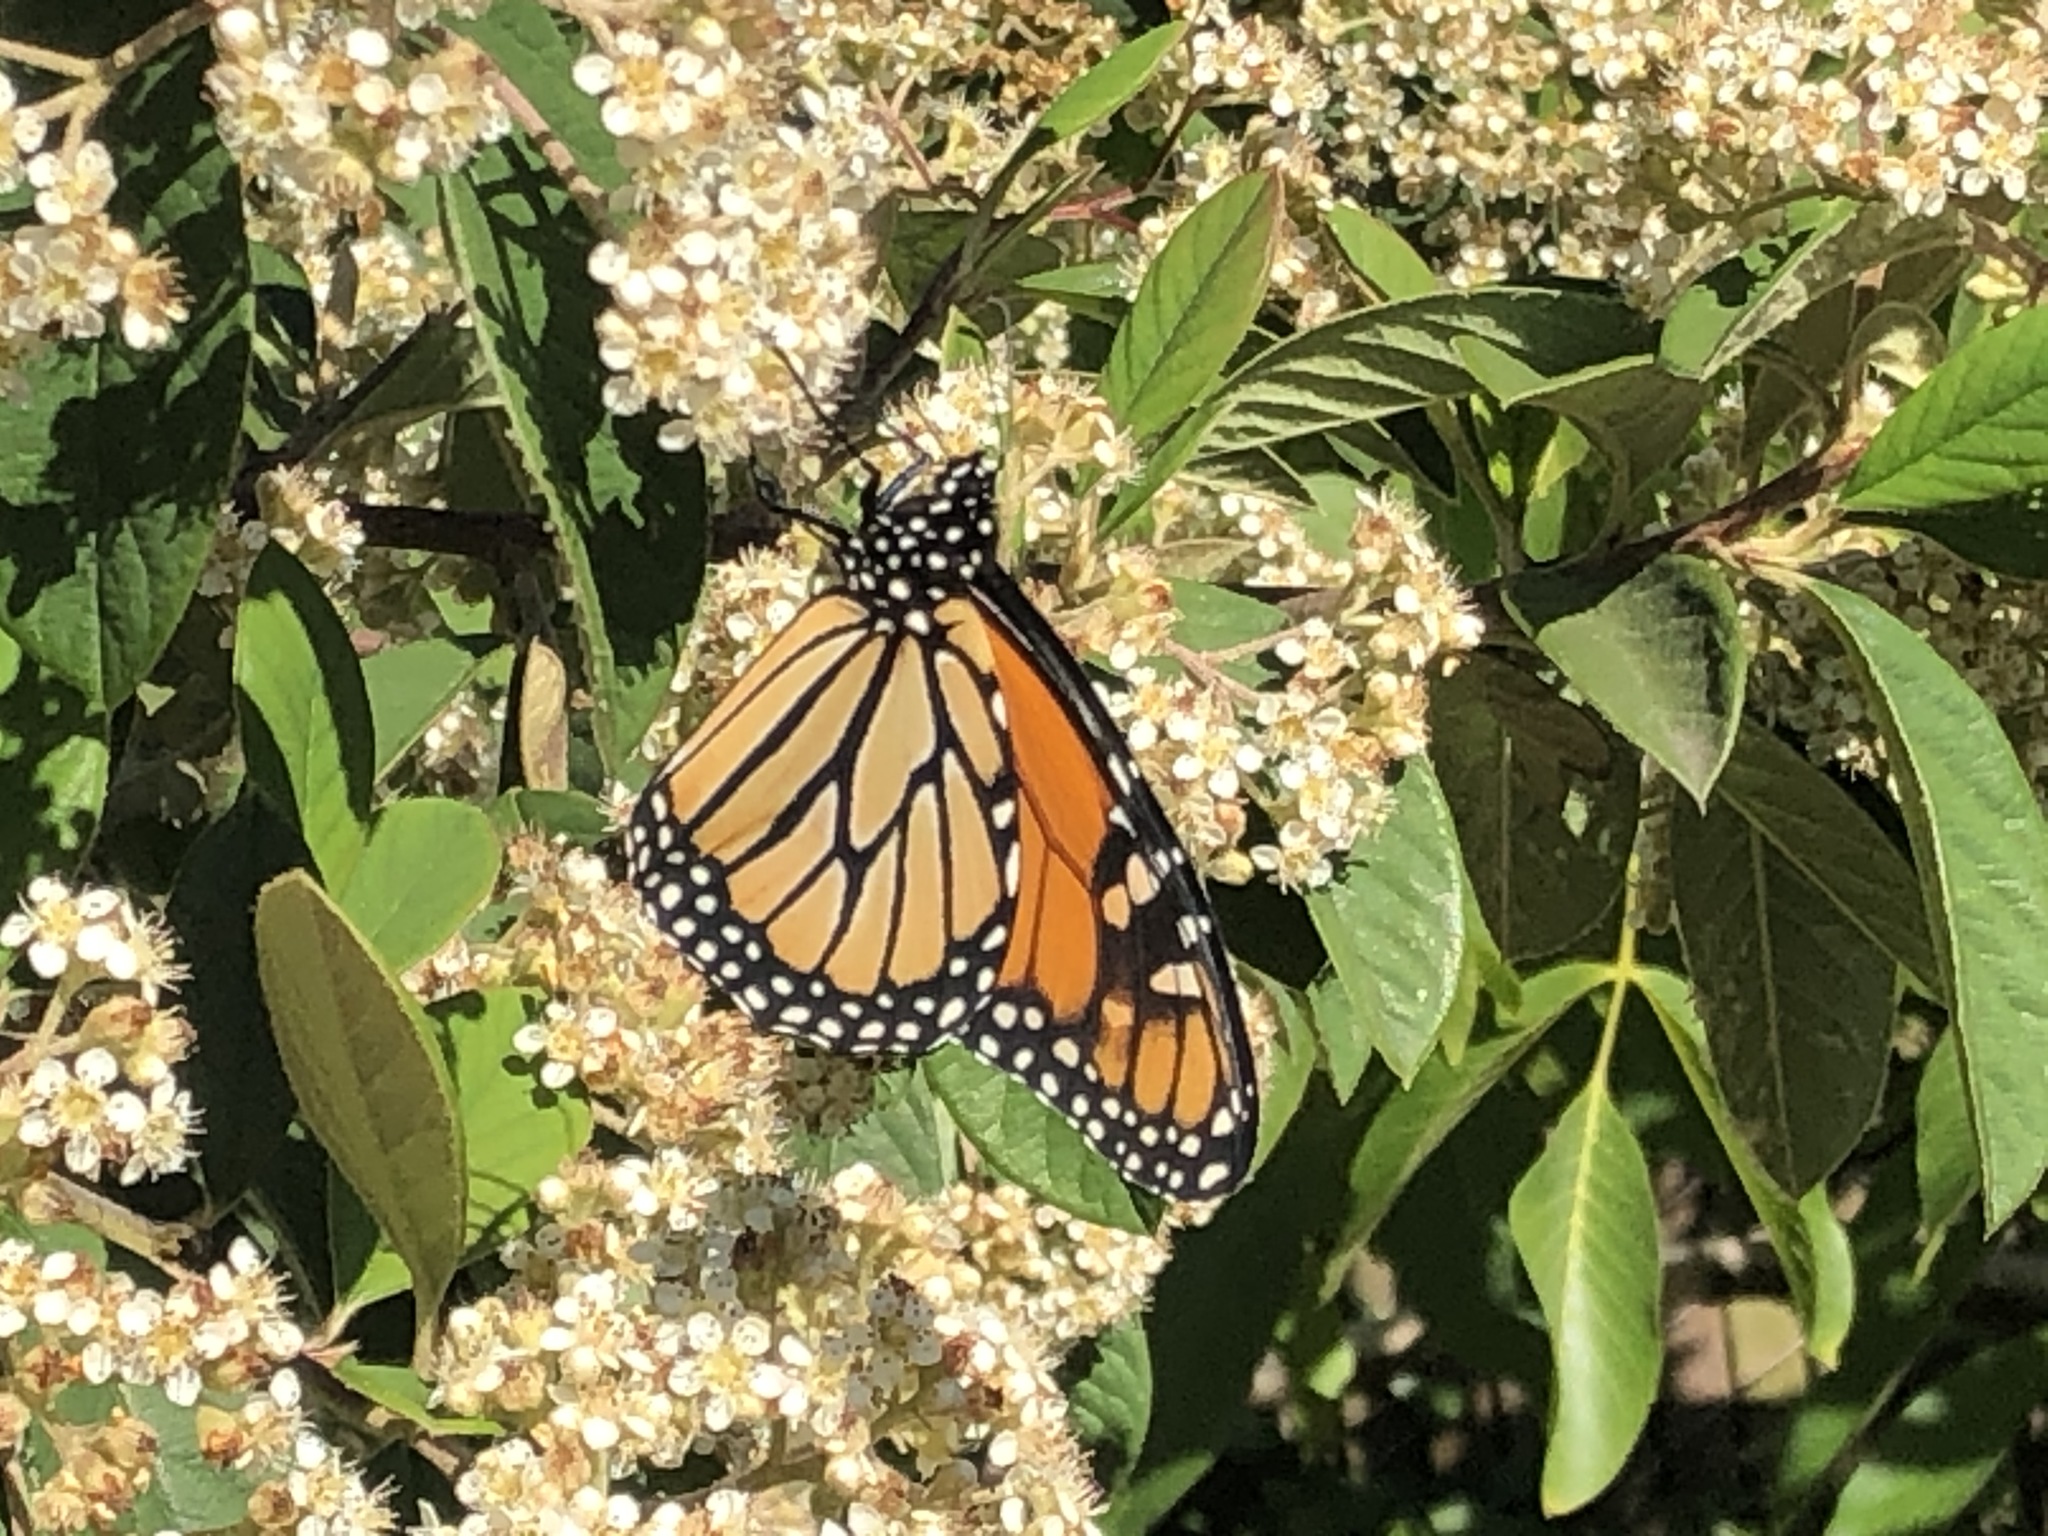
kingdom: Animalia
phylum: Arthropoda
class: Insecta
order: Lepidoptera
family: Nymphalidae
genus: Danaus
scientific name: Danaus plexippus
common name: Monarch
